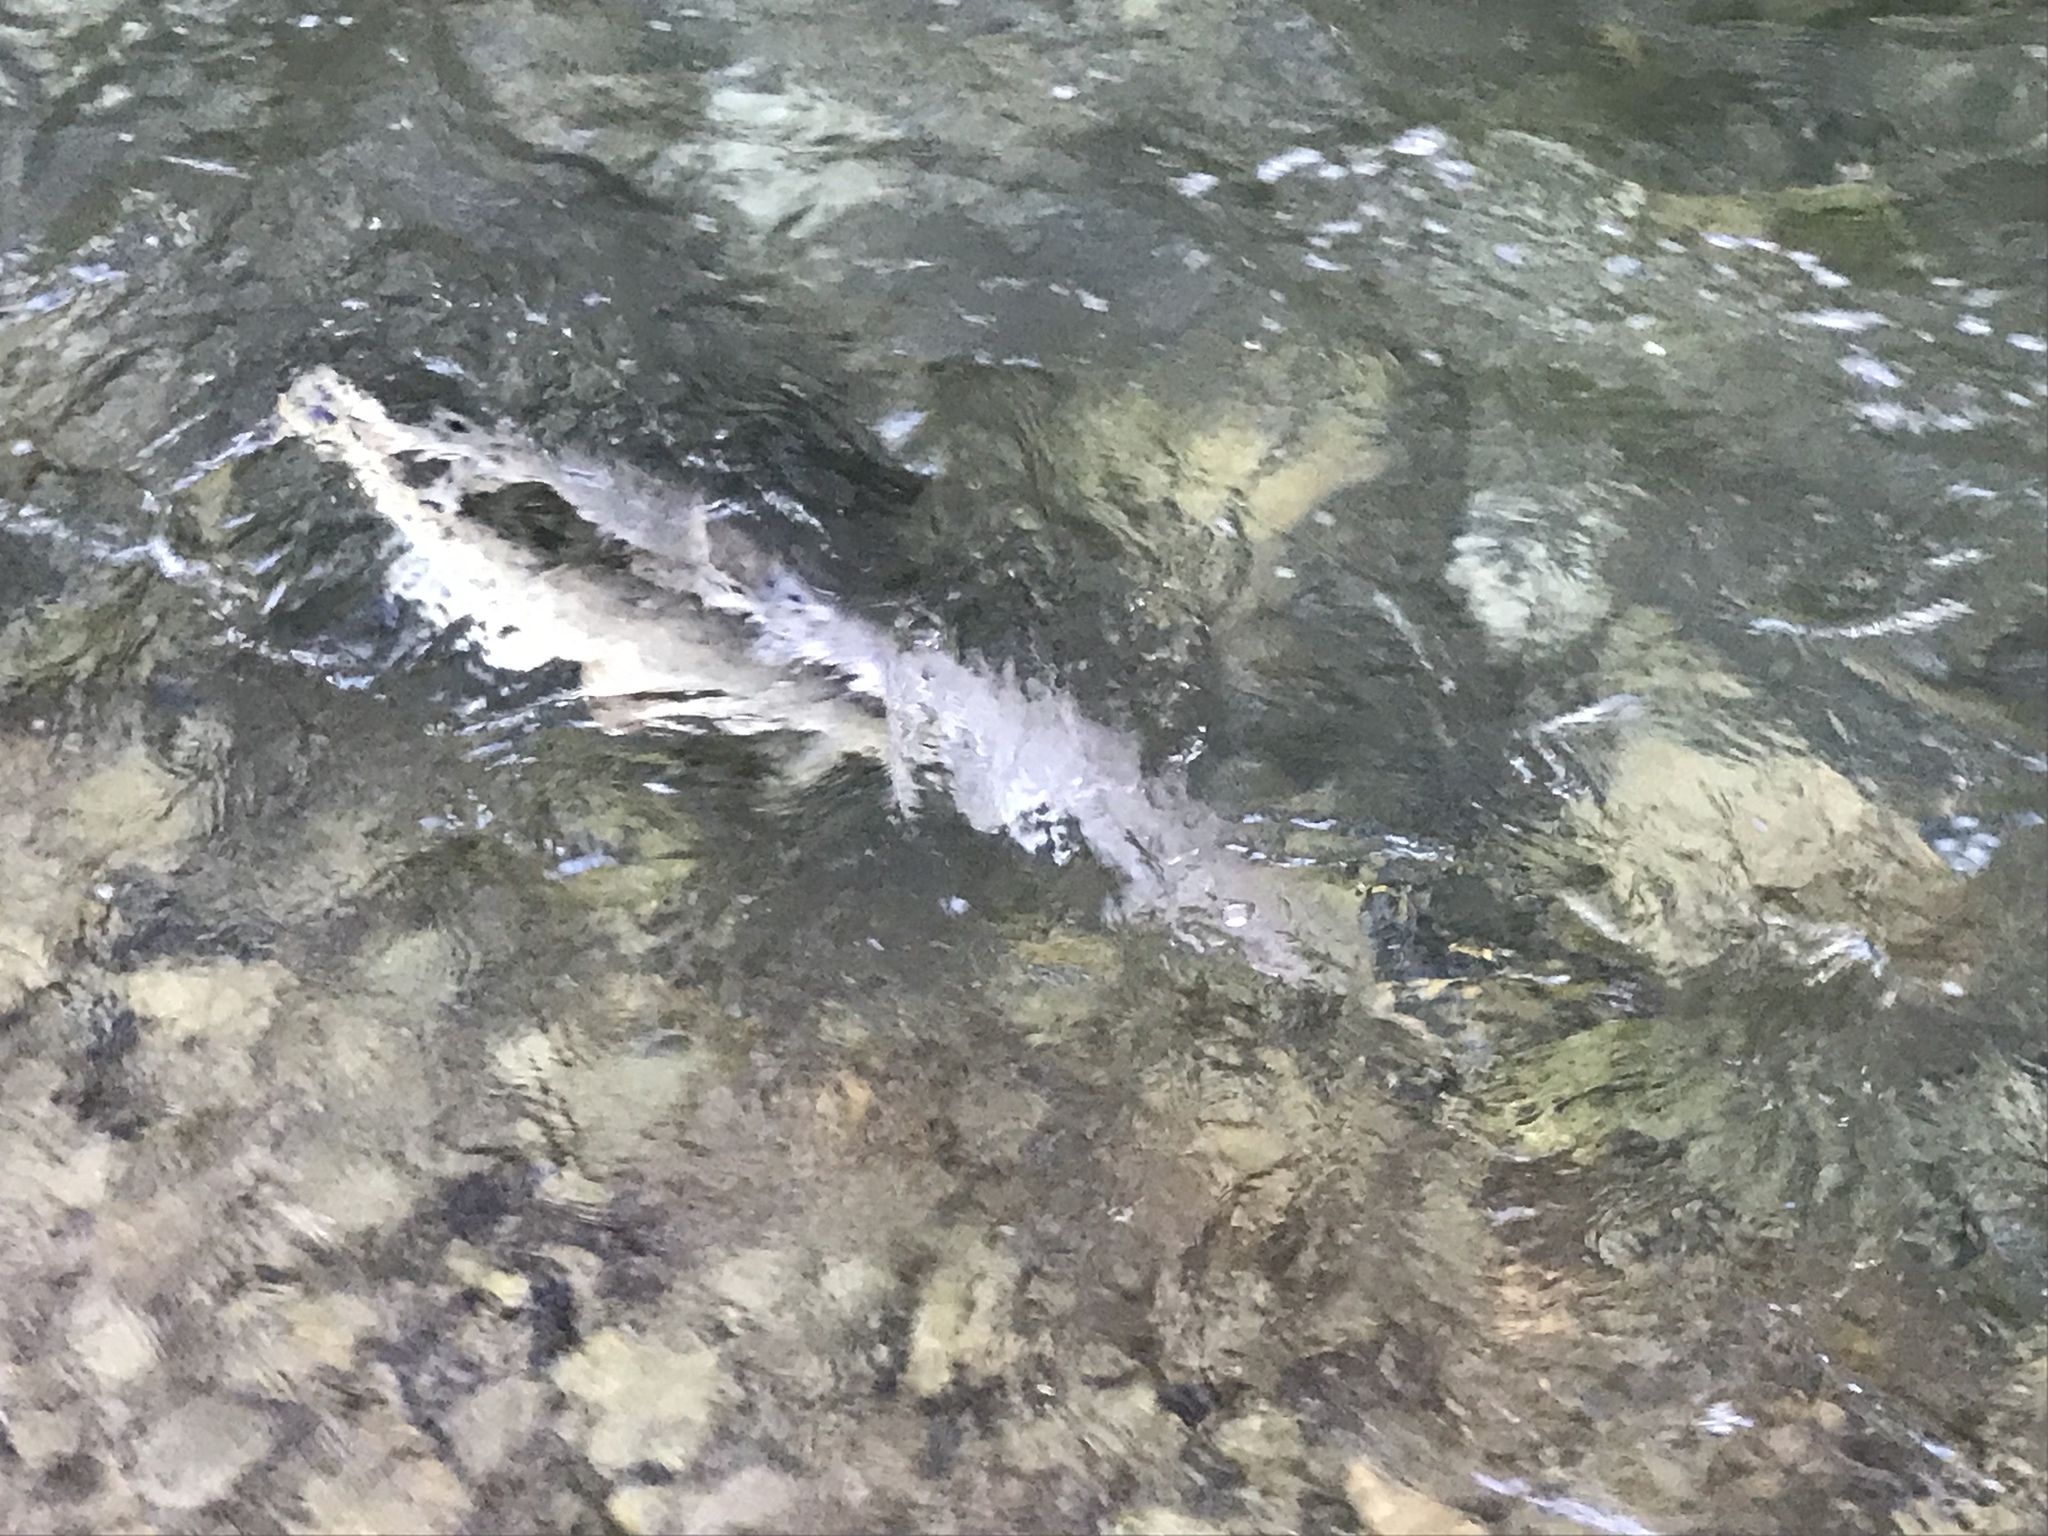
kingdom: Animalia
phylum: Chordata
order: Lepisosteiformes
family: Lepisosteidae
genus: Lepisosteus
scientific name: Lepisosteus osseus
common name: Longnose gar
